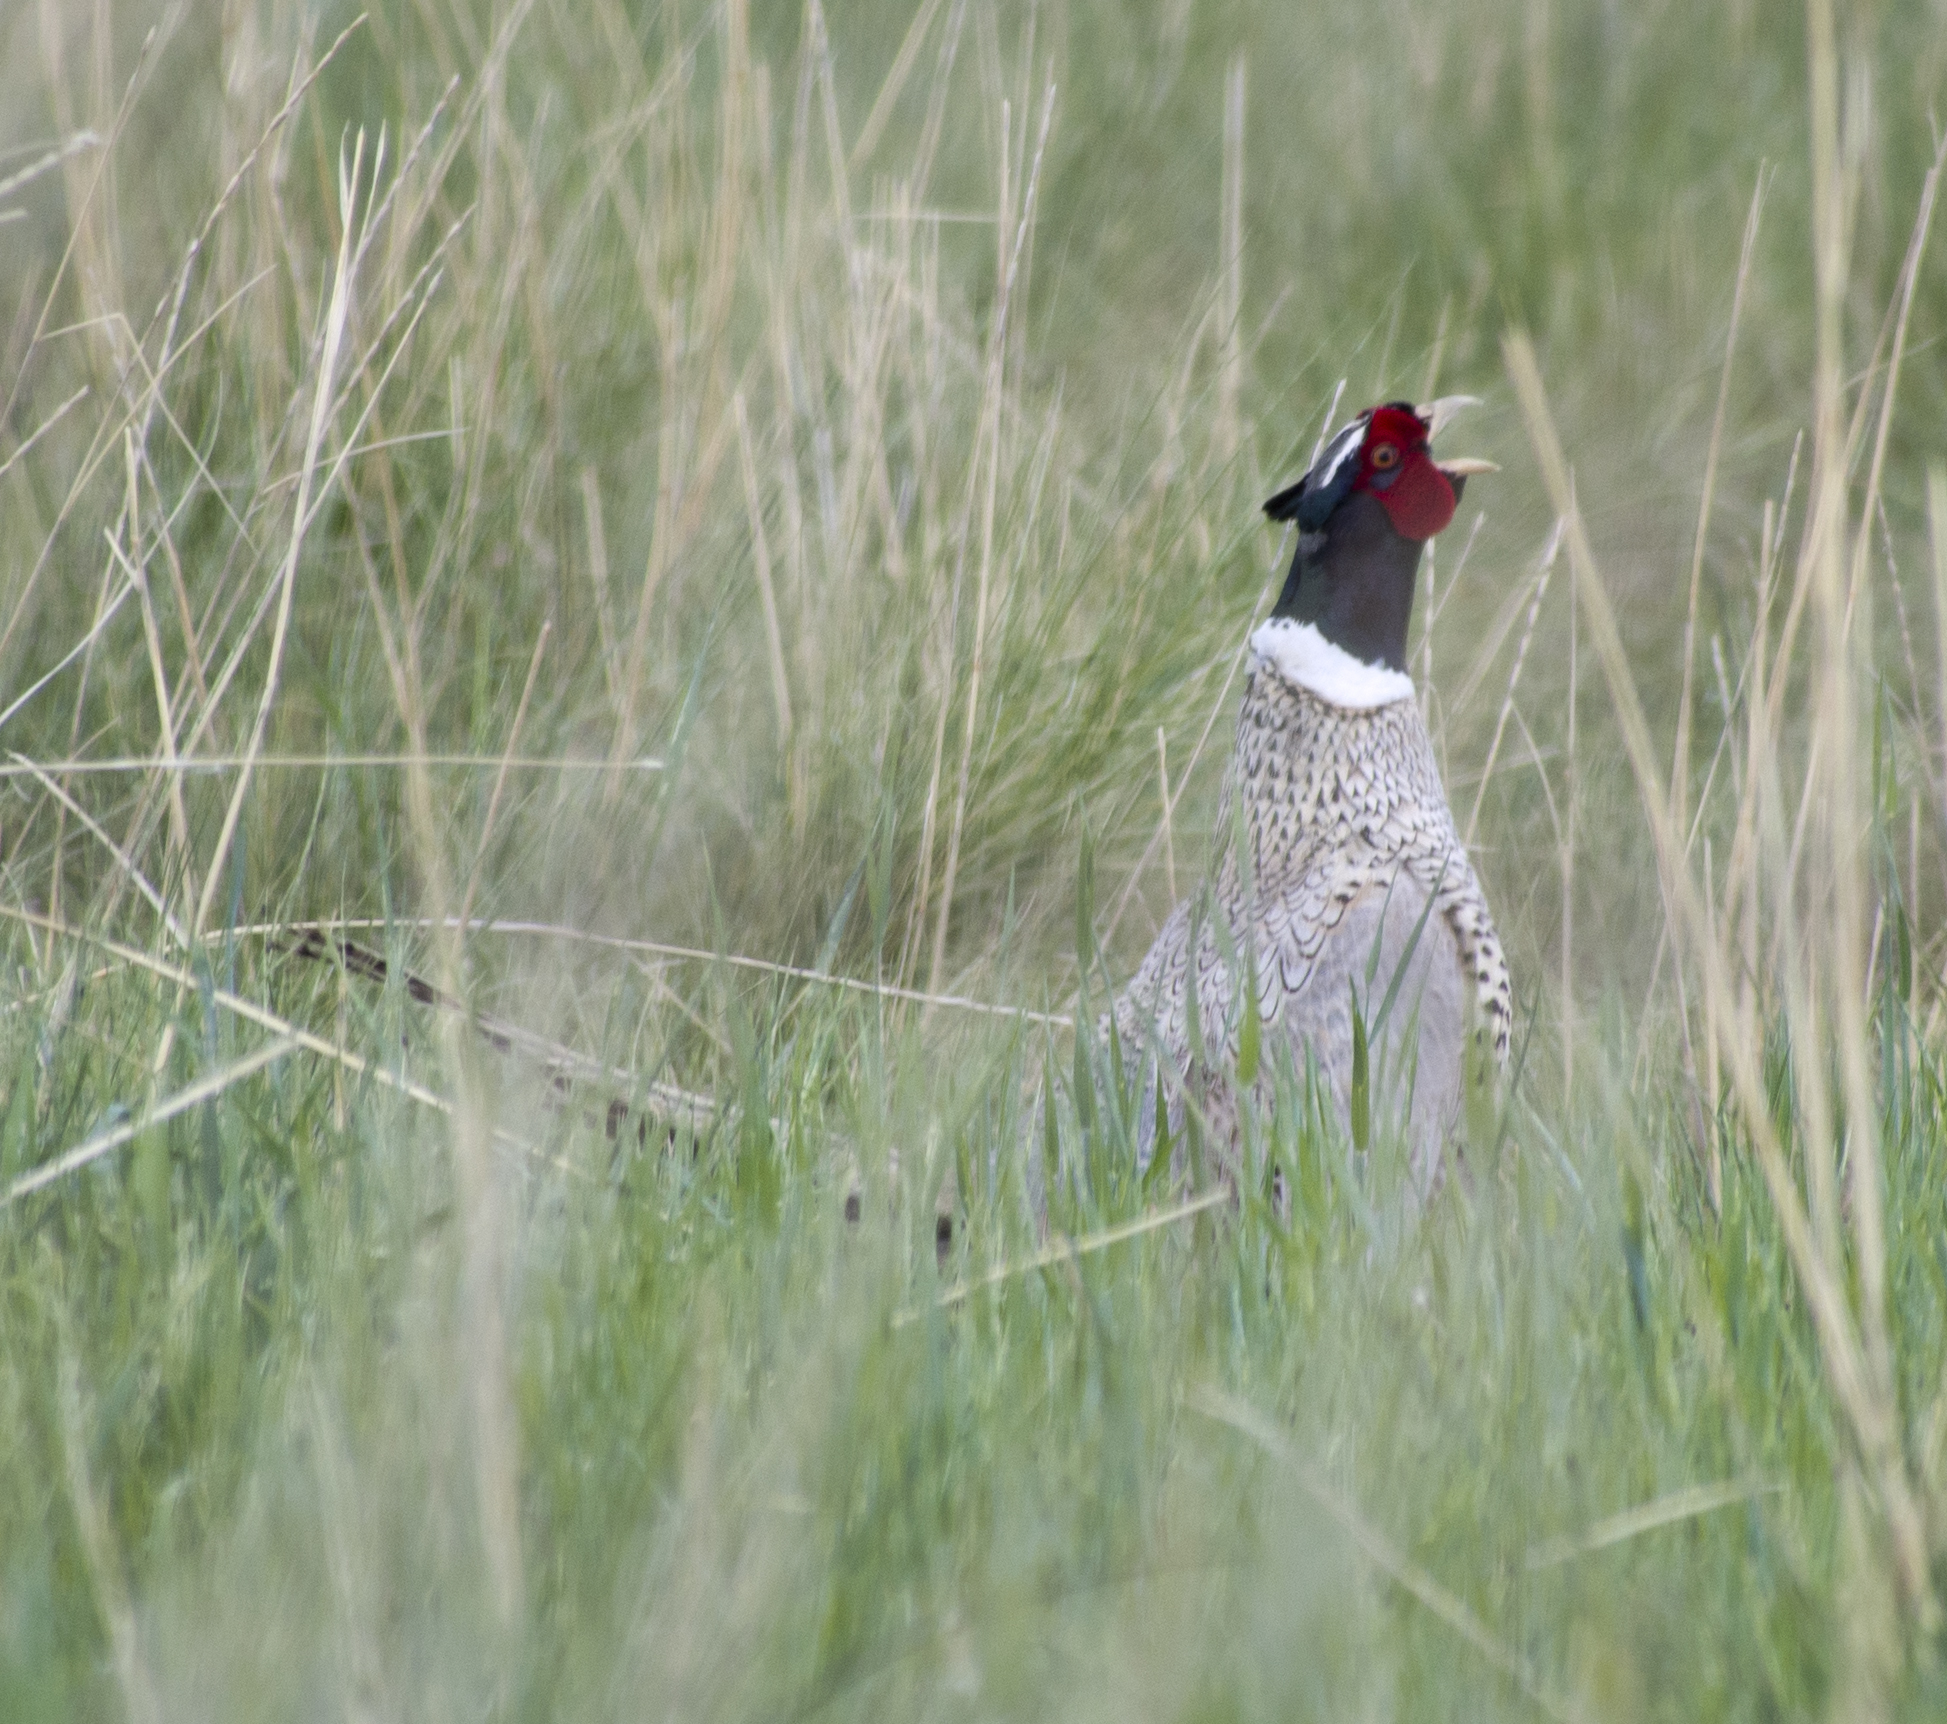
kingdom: Animalia
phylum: Chordata
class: Aves
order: Galliformes
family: Phasianidae
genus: Phasianus
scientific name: Phasianus colchicus
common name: Common pheasant
